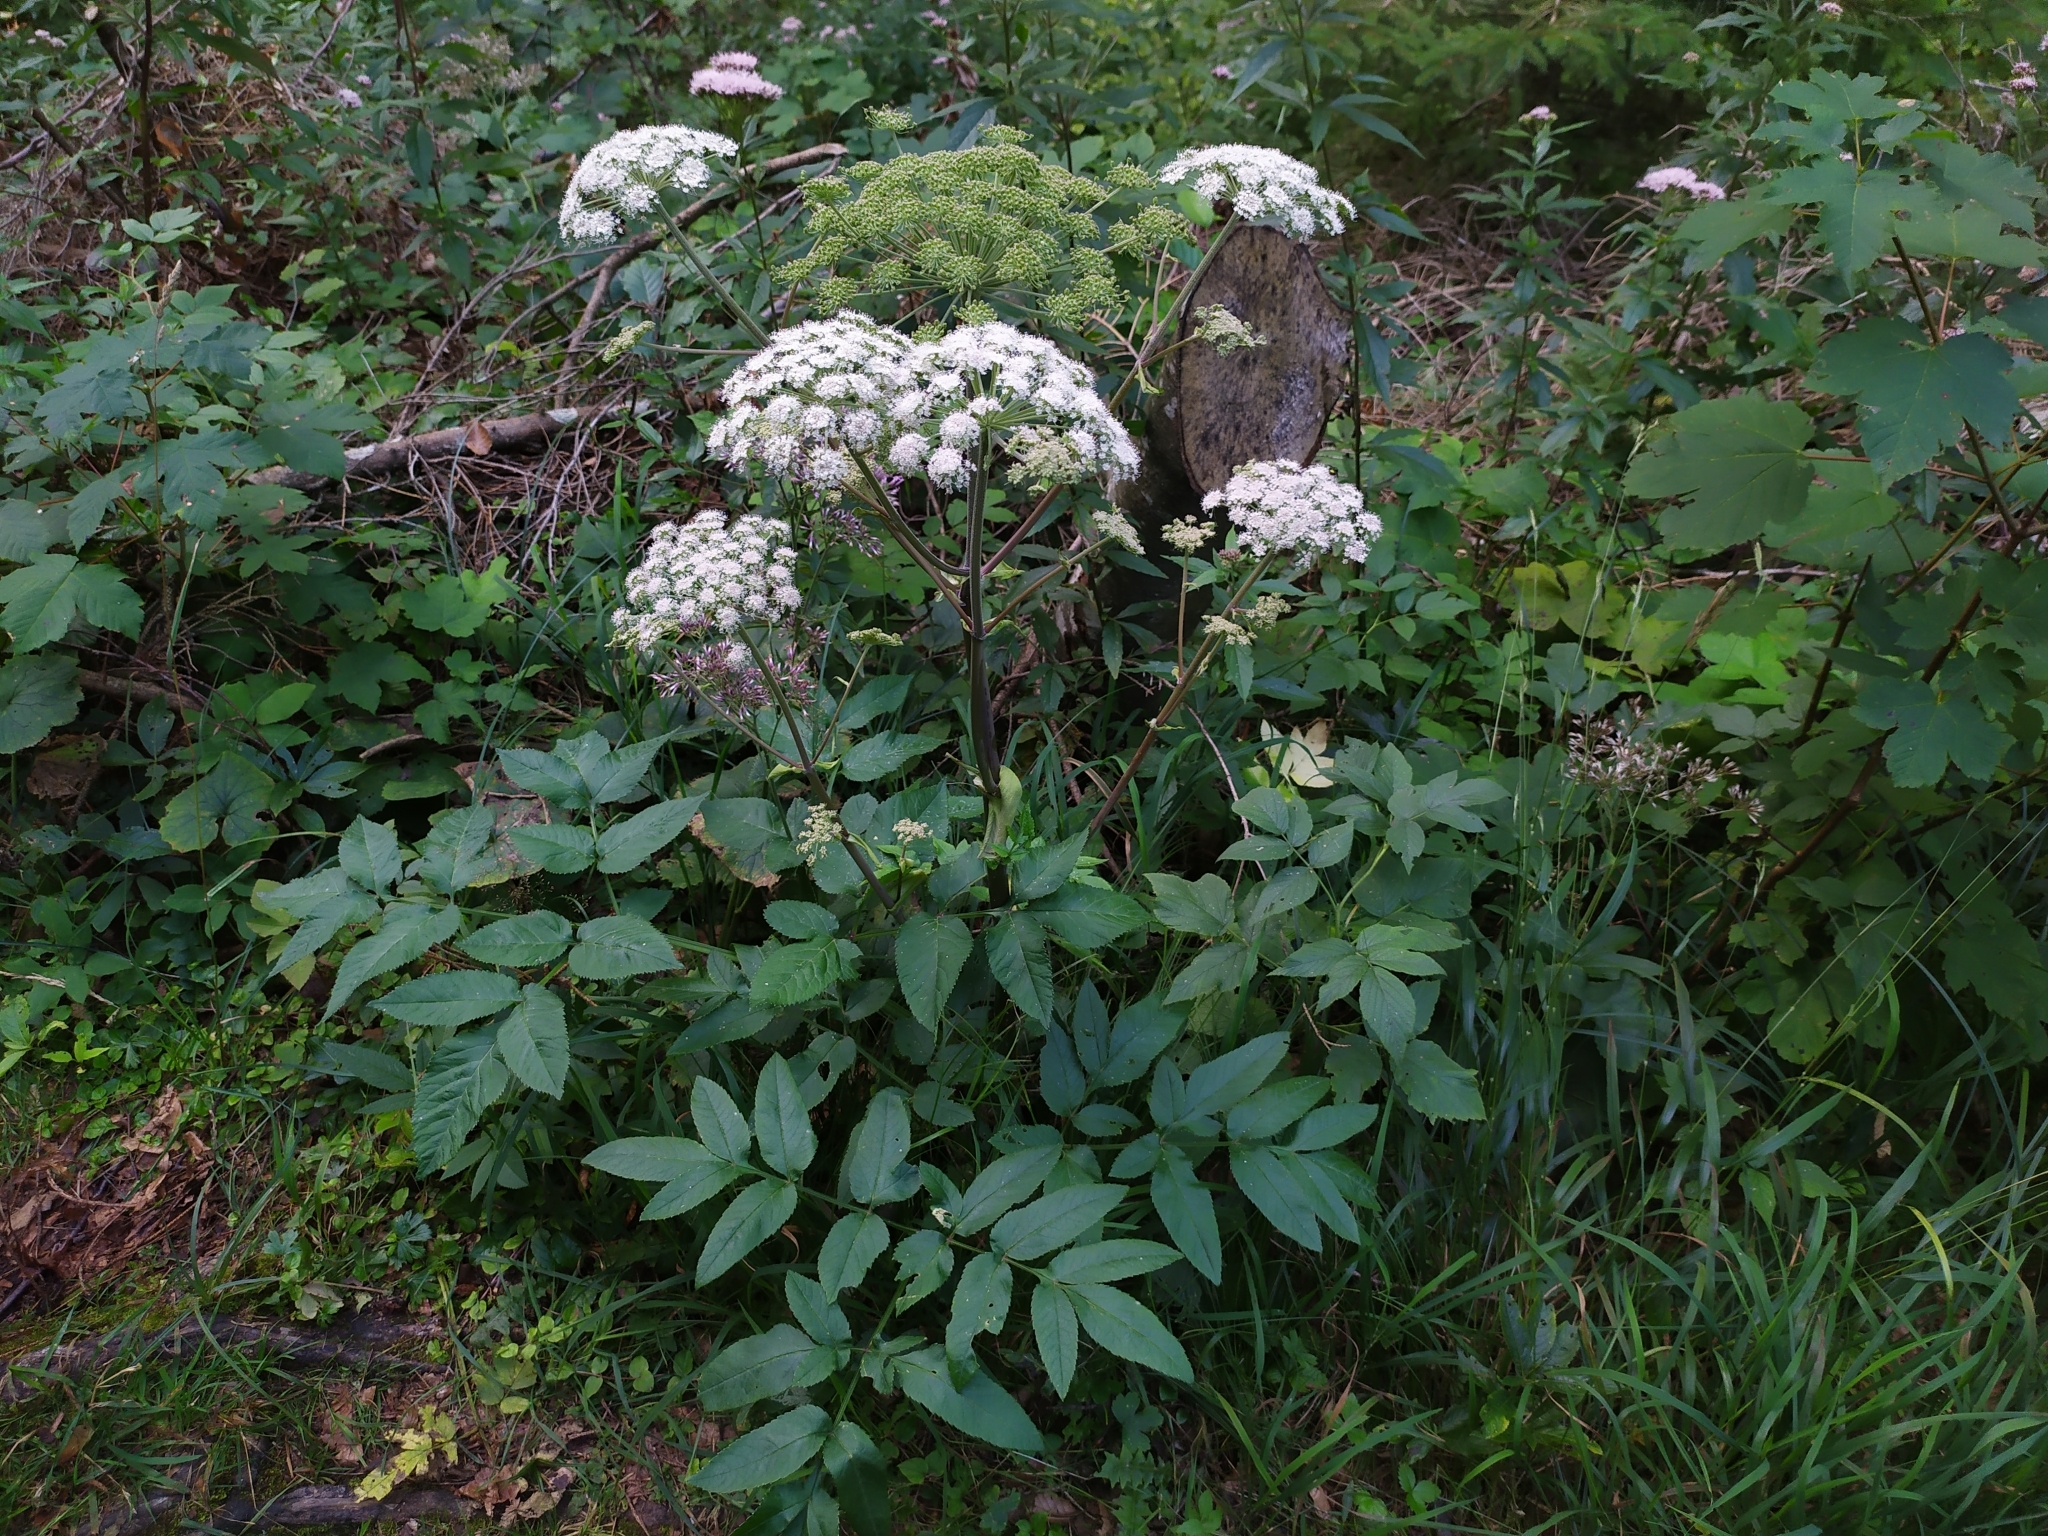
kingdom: Plantae
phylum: Tracheophyta
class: Magnoliopsida
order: Apiales
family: Apiaceae
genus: Angelica
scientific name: Angelica sylvestris
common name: Wild angelica
